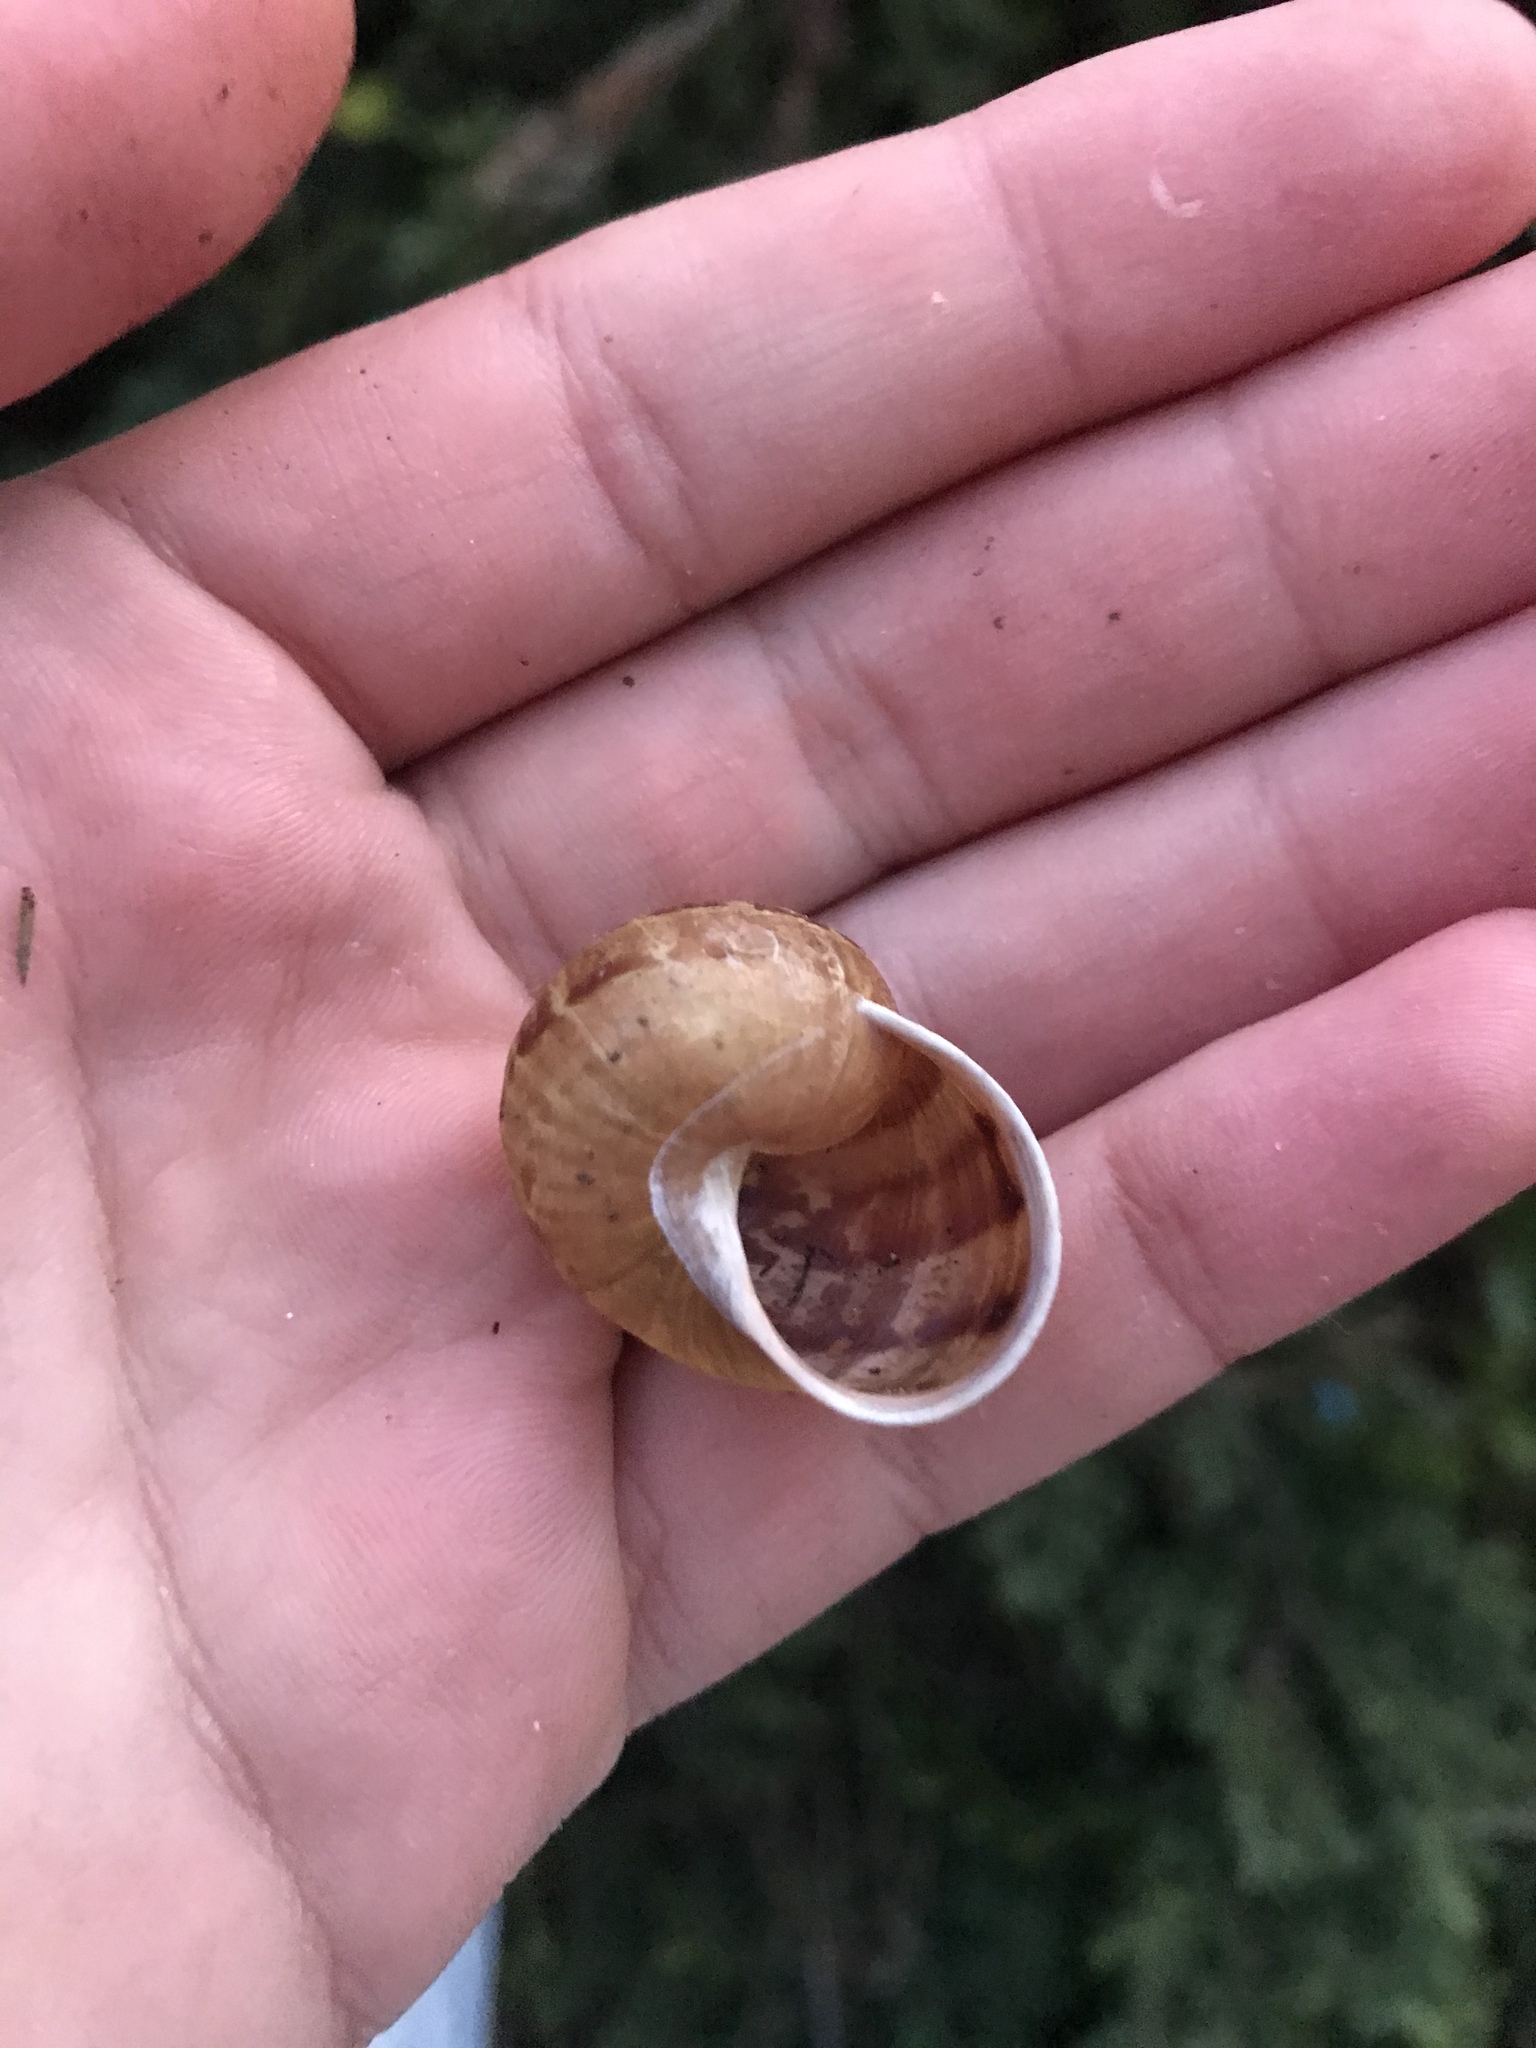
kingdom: Animalia
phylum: Mollusca
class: Gastropoda
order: Stylommatophora
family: Helicidae
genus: Cornu
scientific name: Cornu aspersum
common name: Brown garden snail
